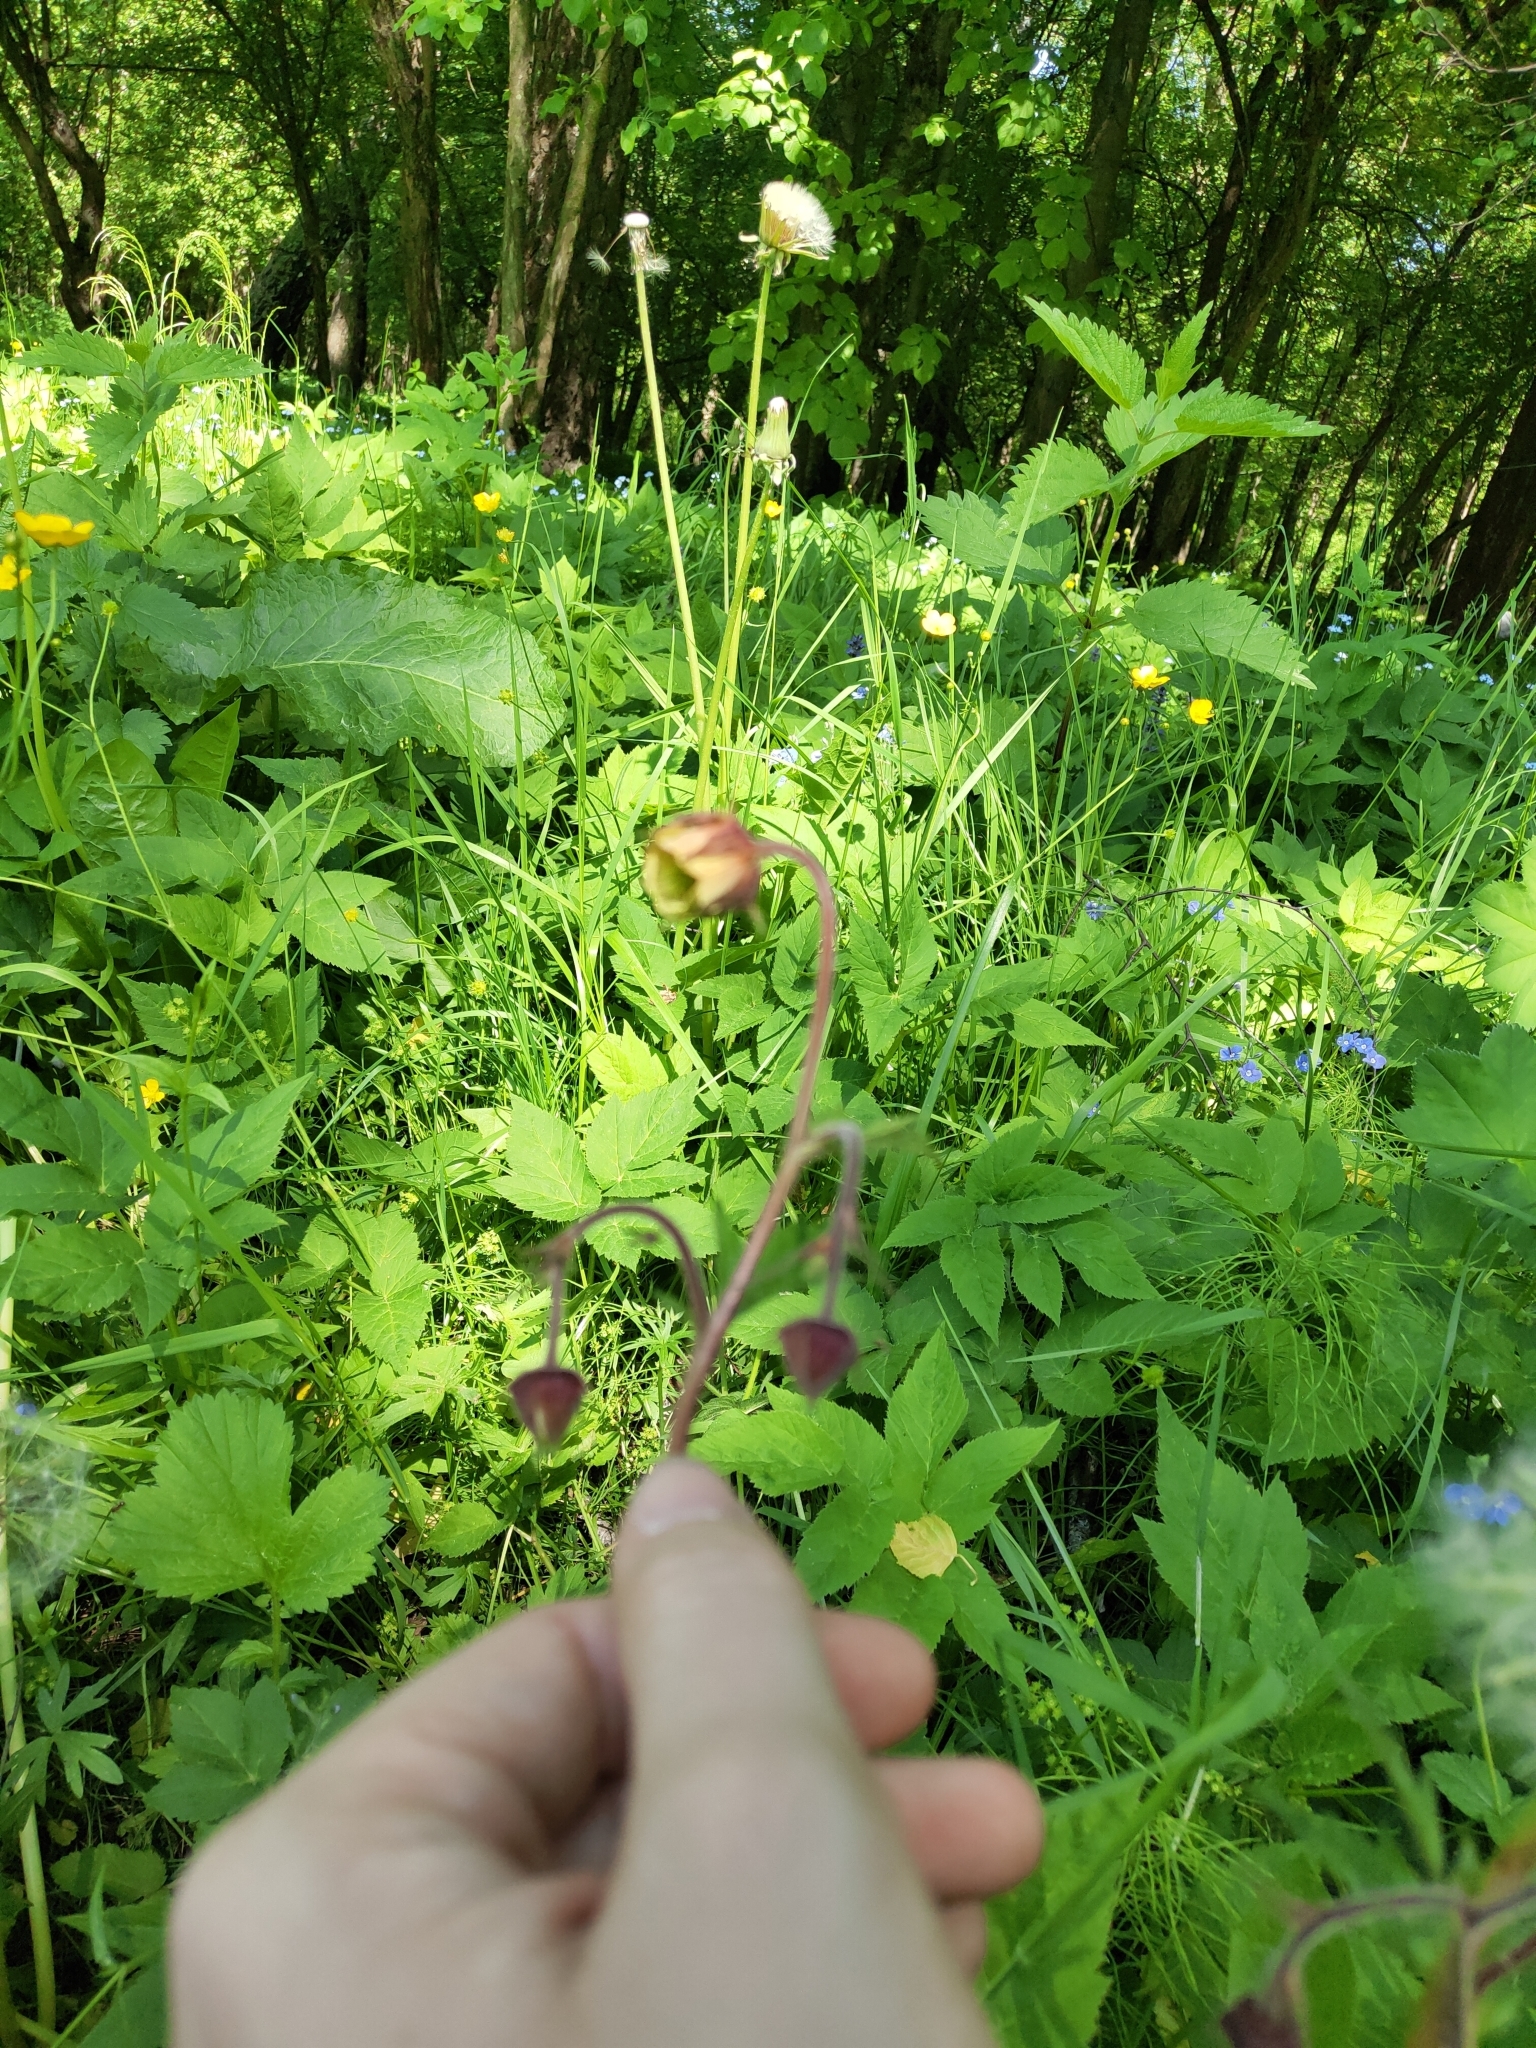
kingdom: Plantae
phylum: Tracheophyta
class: Magnoliopsida
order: Rosales
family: Rosaceae
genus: Geum
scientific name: Geum rivale
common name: Water avens
